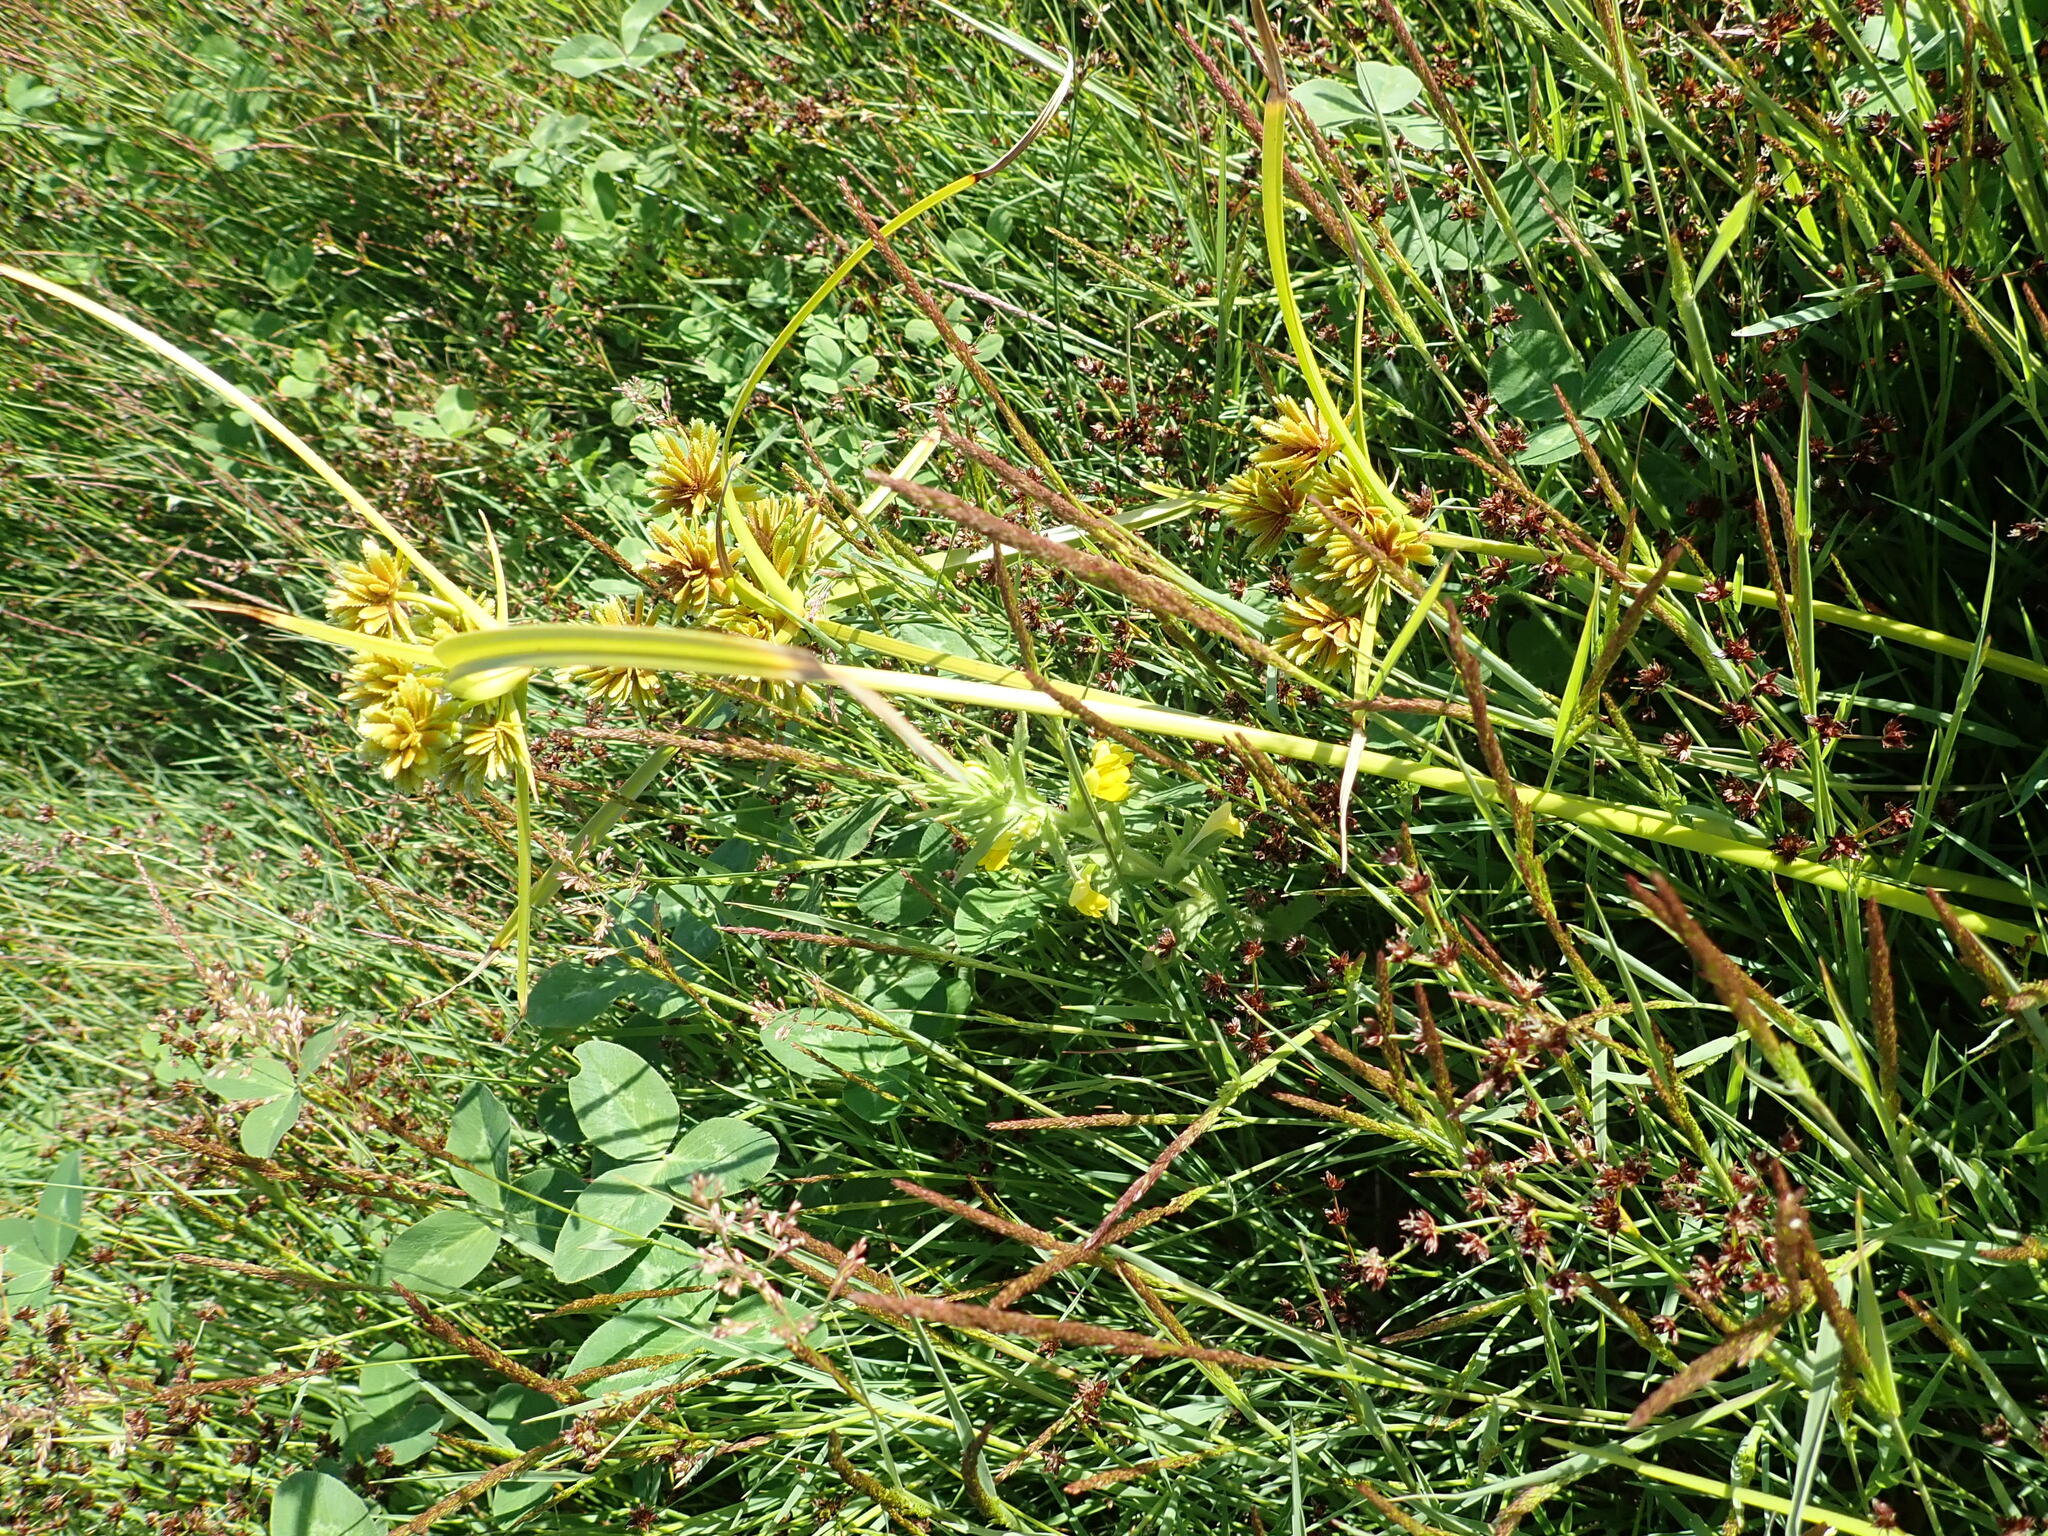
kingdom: Plantae
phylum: Tracheophyta
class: Liliopsida
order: Poales
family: Cyperaceae
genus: Cyperus
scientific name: Cyperus eragrostis
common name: Tall flatsedge
